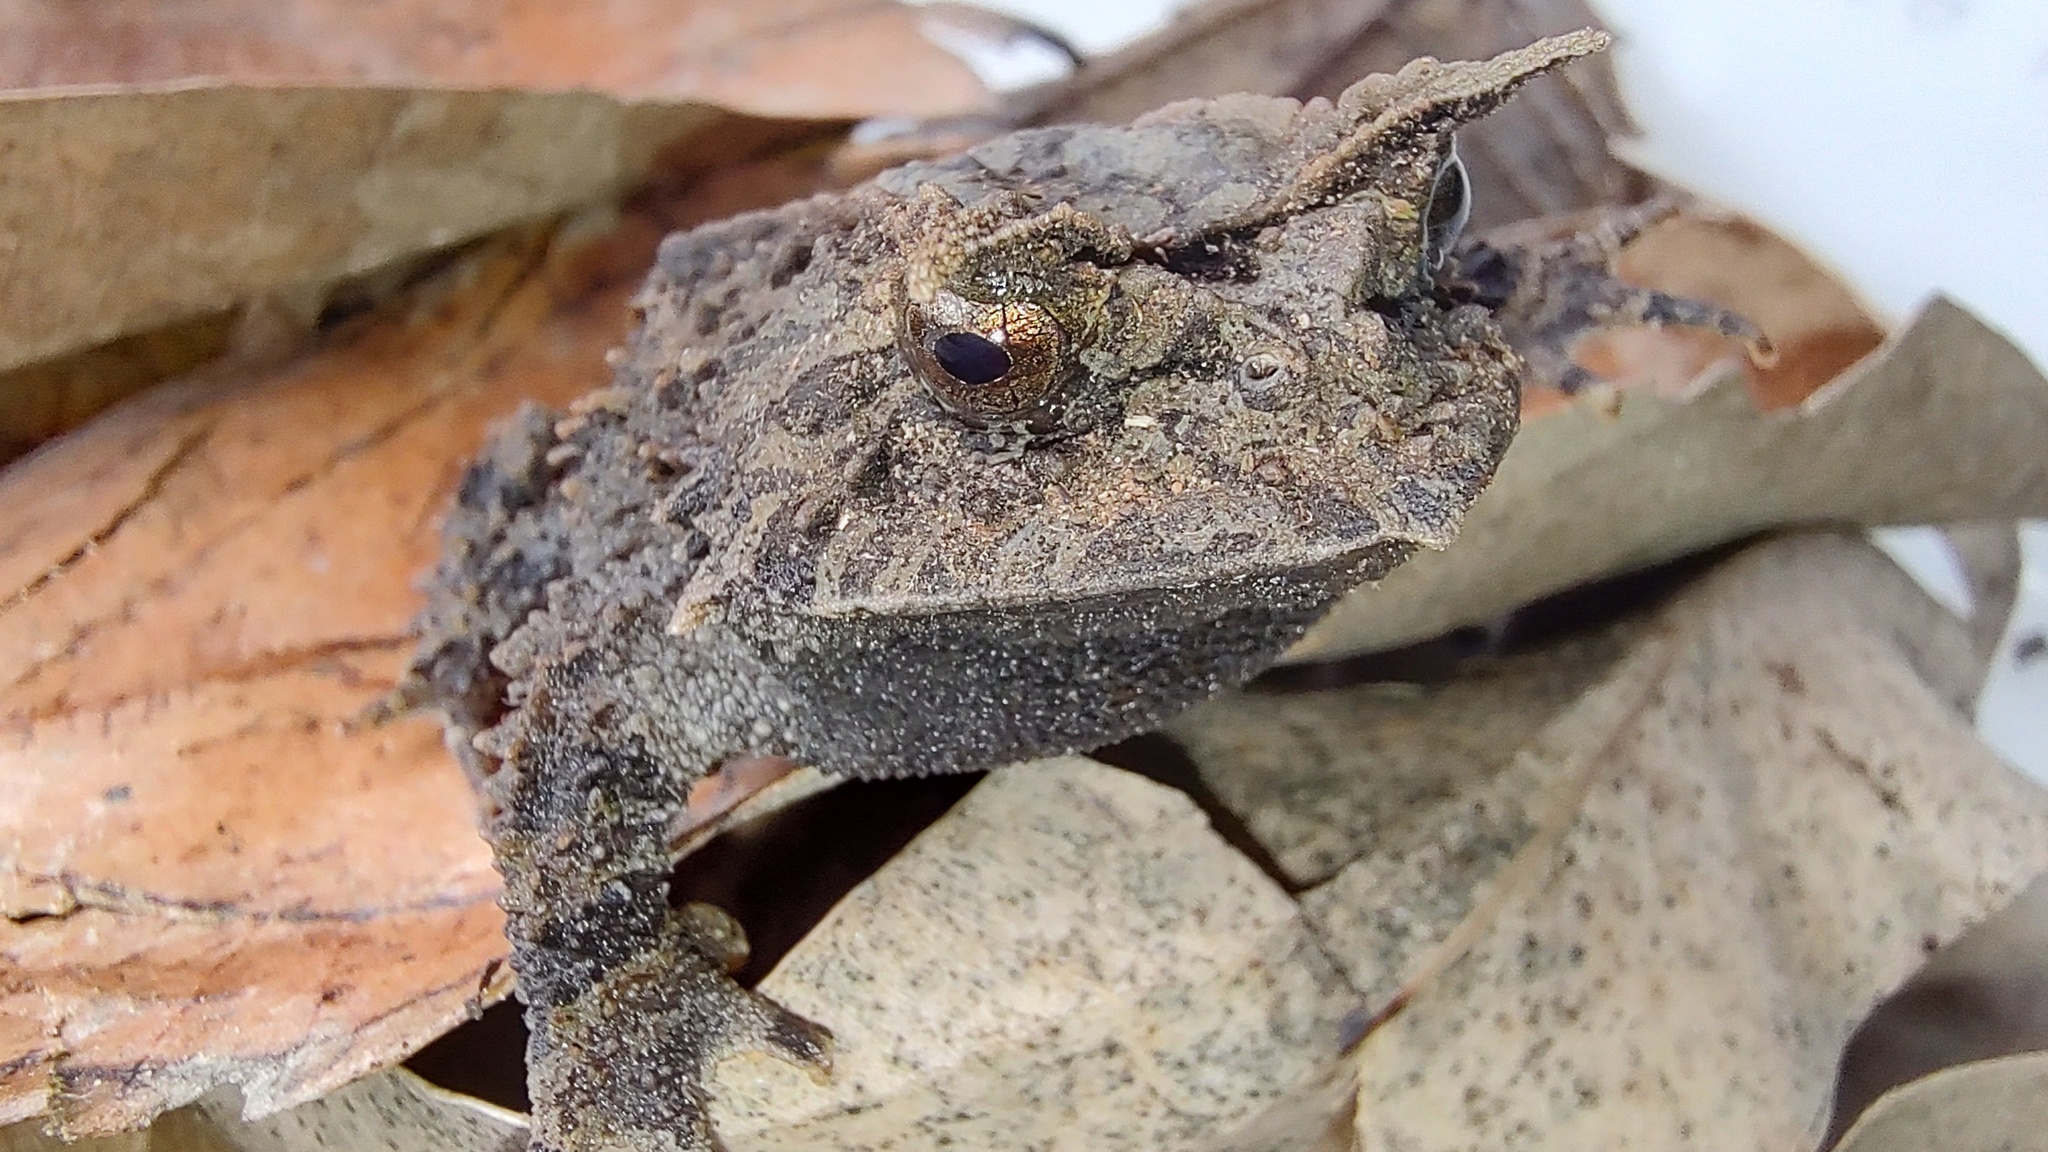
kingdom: Animalia
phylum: Chordata
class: Amphibia
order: Anura
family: Odontophrynidae
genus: Proceratophrys
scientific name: Proceratophrys subguttata
